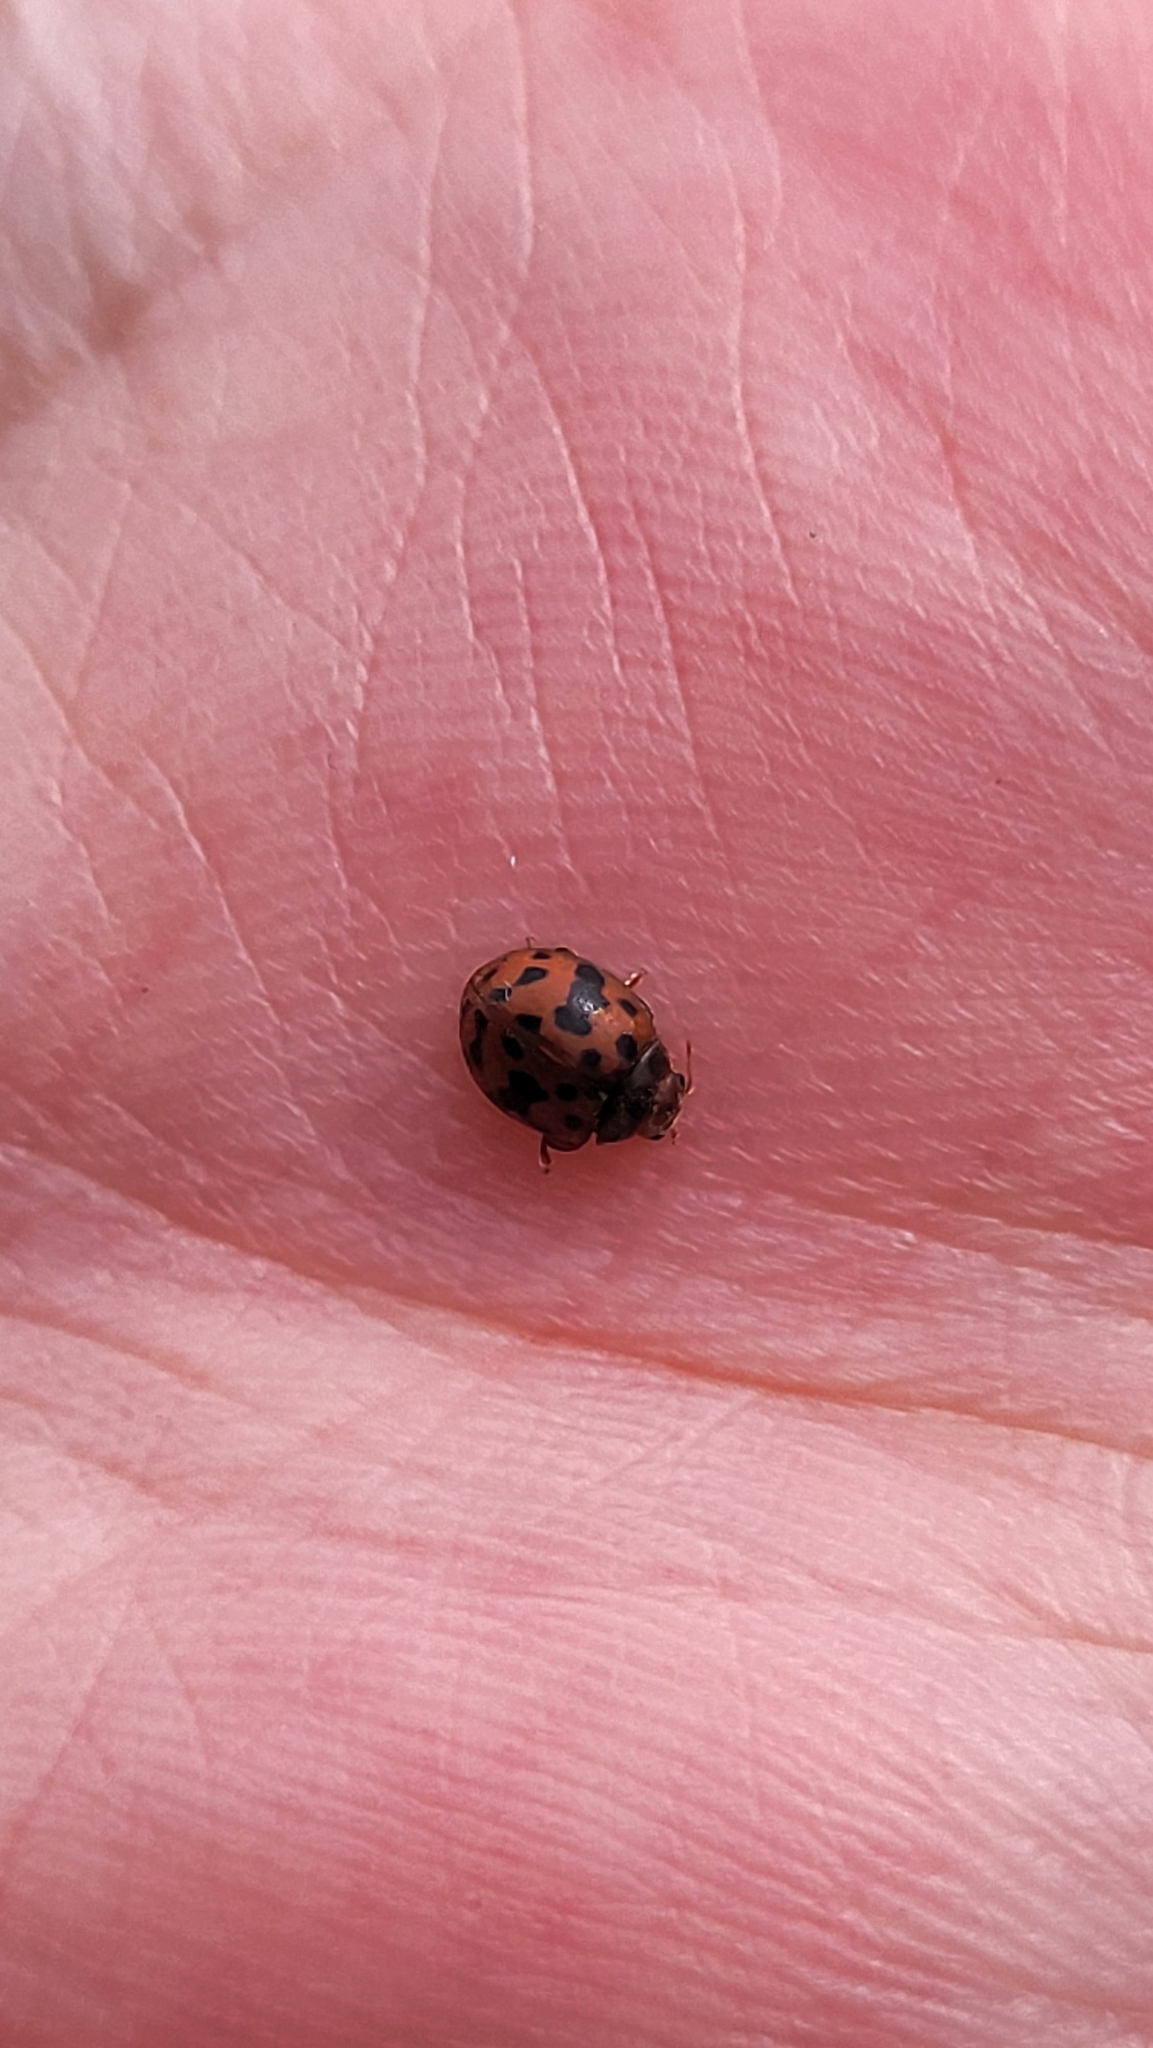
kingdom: Animalia
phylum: Arthropoda
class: Insecta
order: Coleoptera
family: Coccinellidae
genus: Subcoccinella
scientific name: Subcoccinella vigintiquatuorpunctata
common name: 24-spot ladybird
